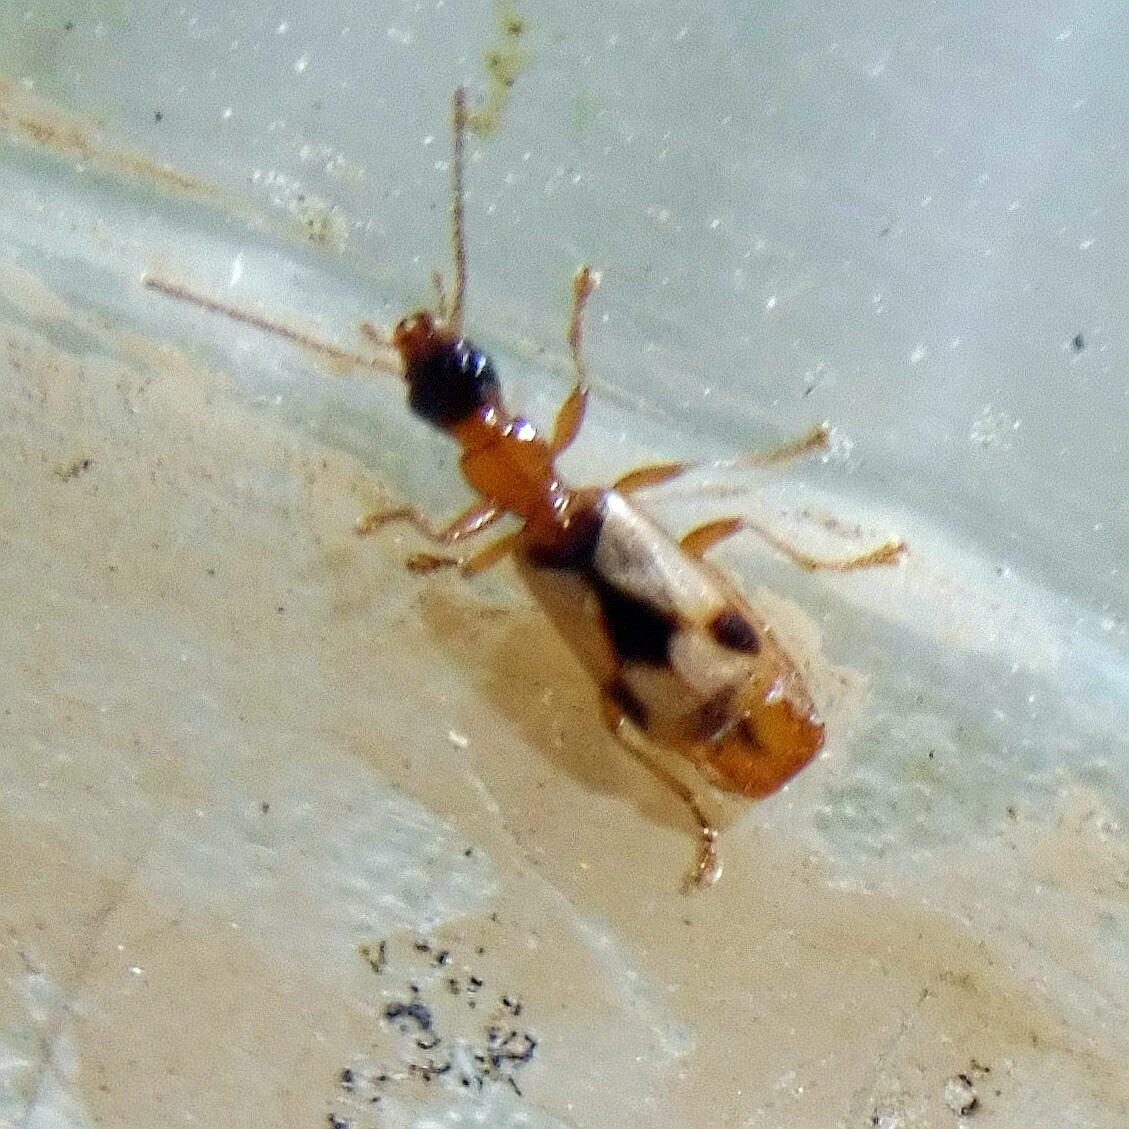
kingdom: Animalia
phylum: Arthropoda
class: Insecta
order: Coleoptera
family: Carabidae
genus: Demetrias
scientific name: Demetrias imperialis
